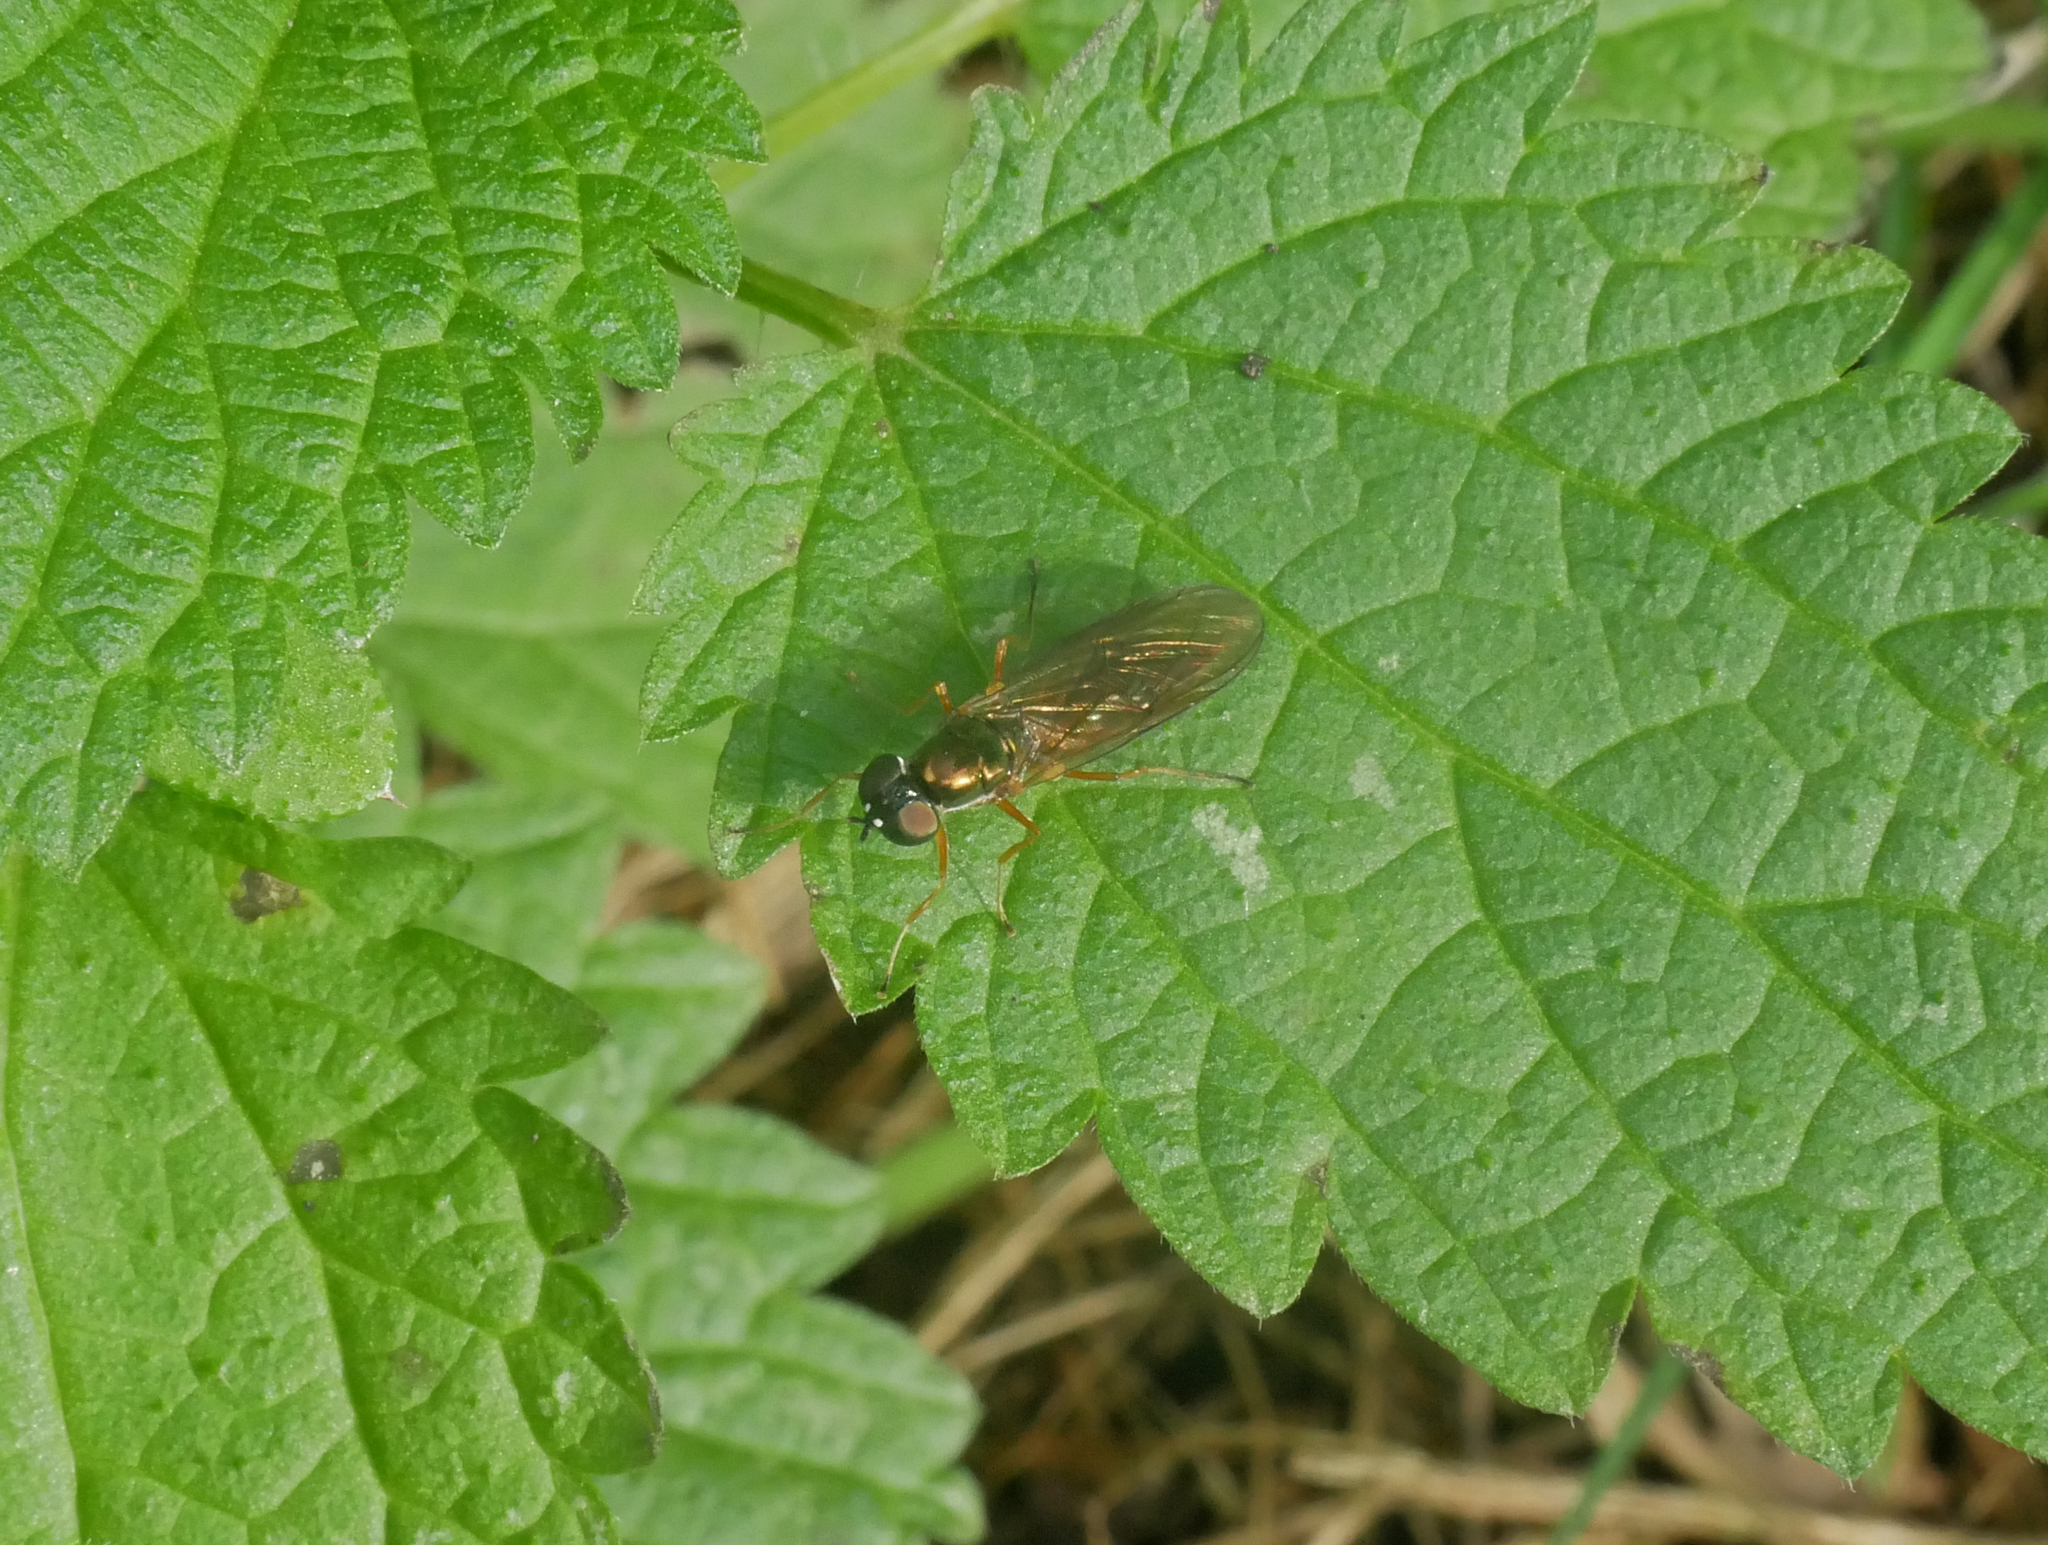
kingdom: Animalia
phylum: Arthropoda
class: Insecta
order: Diptera
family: Stratiomyidae
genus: Sargus
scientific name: Sargus bipunctatus
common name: Twin-spot centurion
